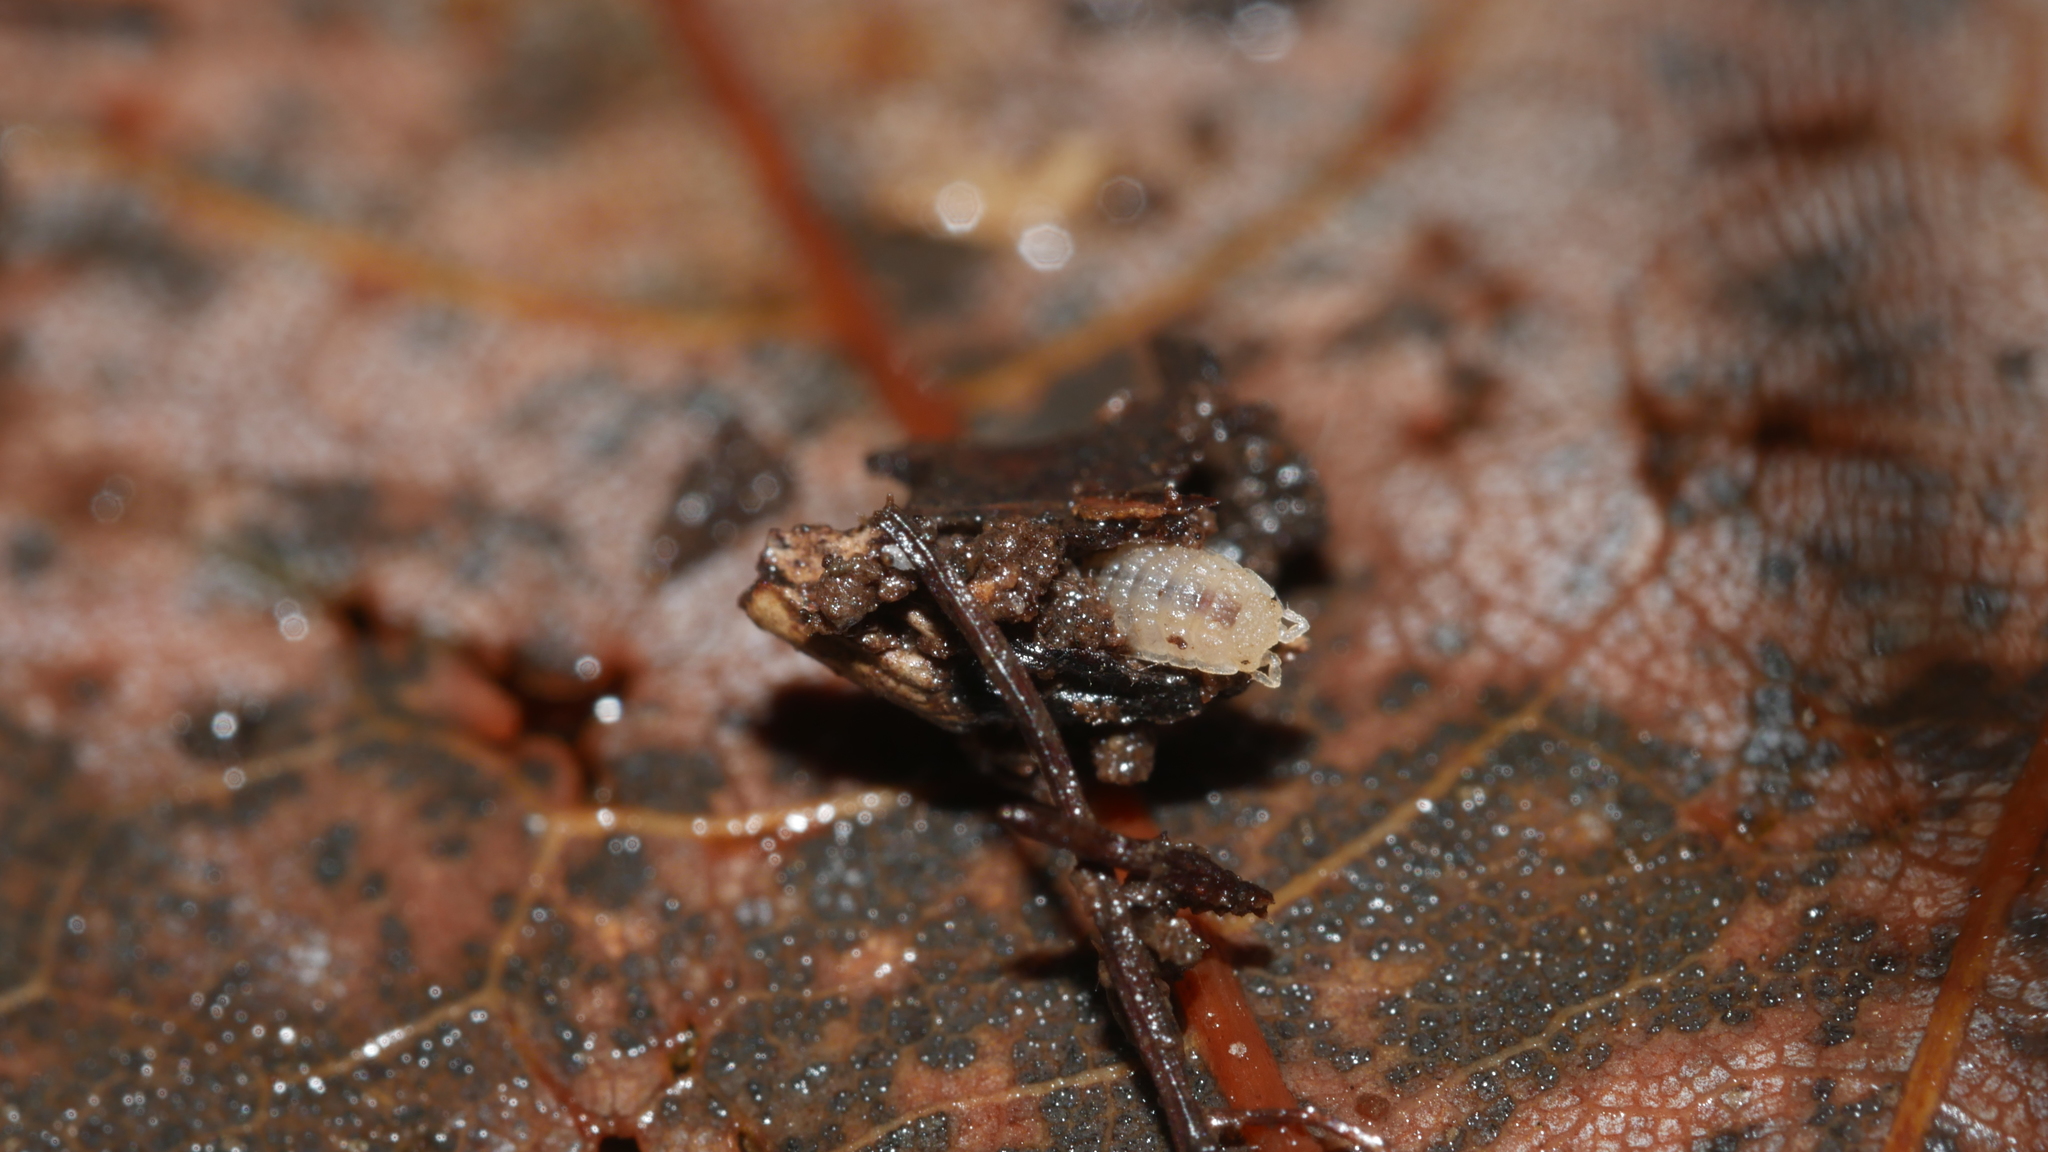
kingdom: Animalia
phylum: Arthropoda
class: Malacostraca
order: Isopoda
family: Trichoniscidae
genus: Haplophthalmus
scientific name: Haplophthalmus danicus
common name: Pillbug
